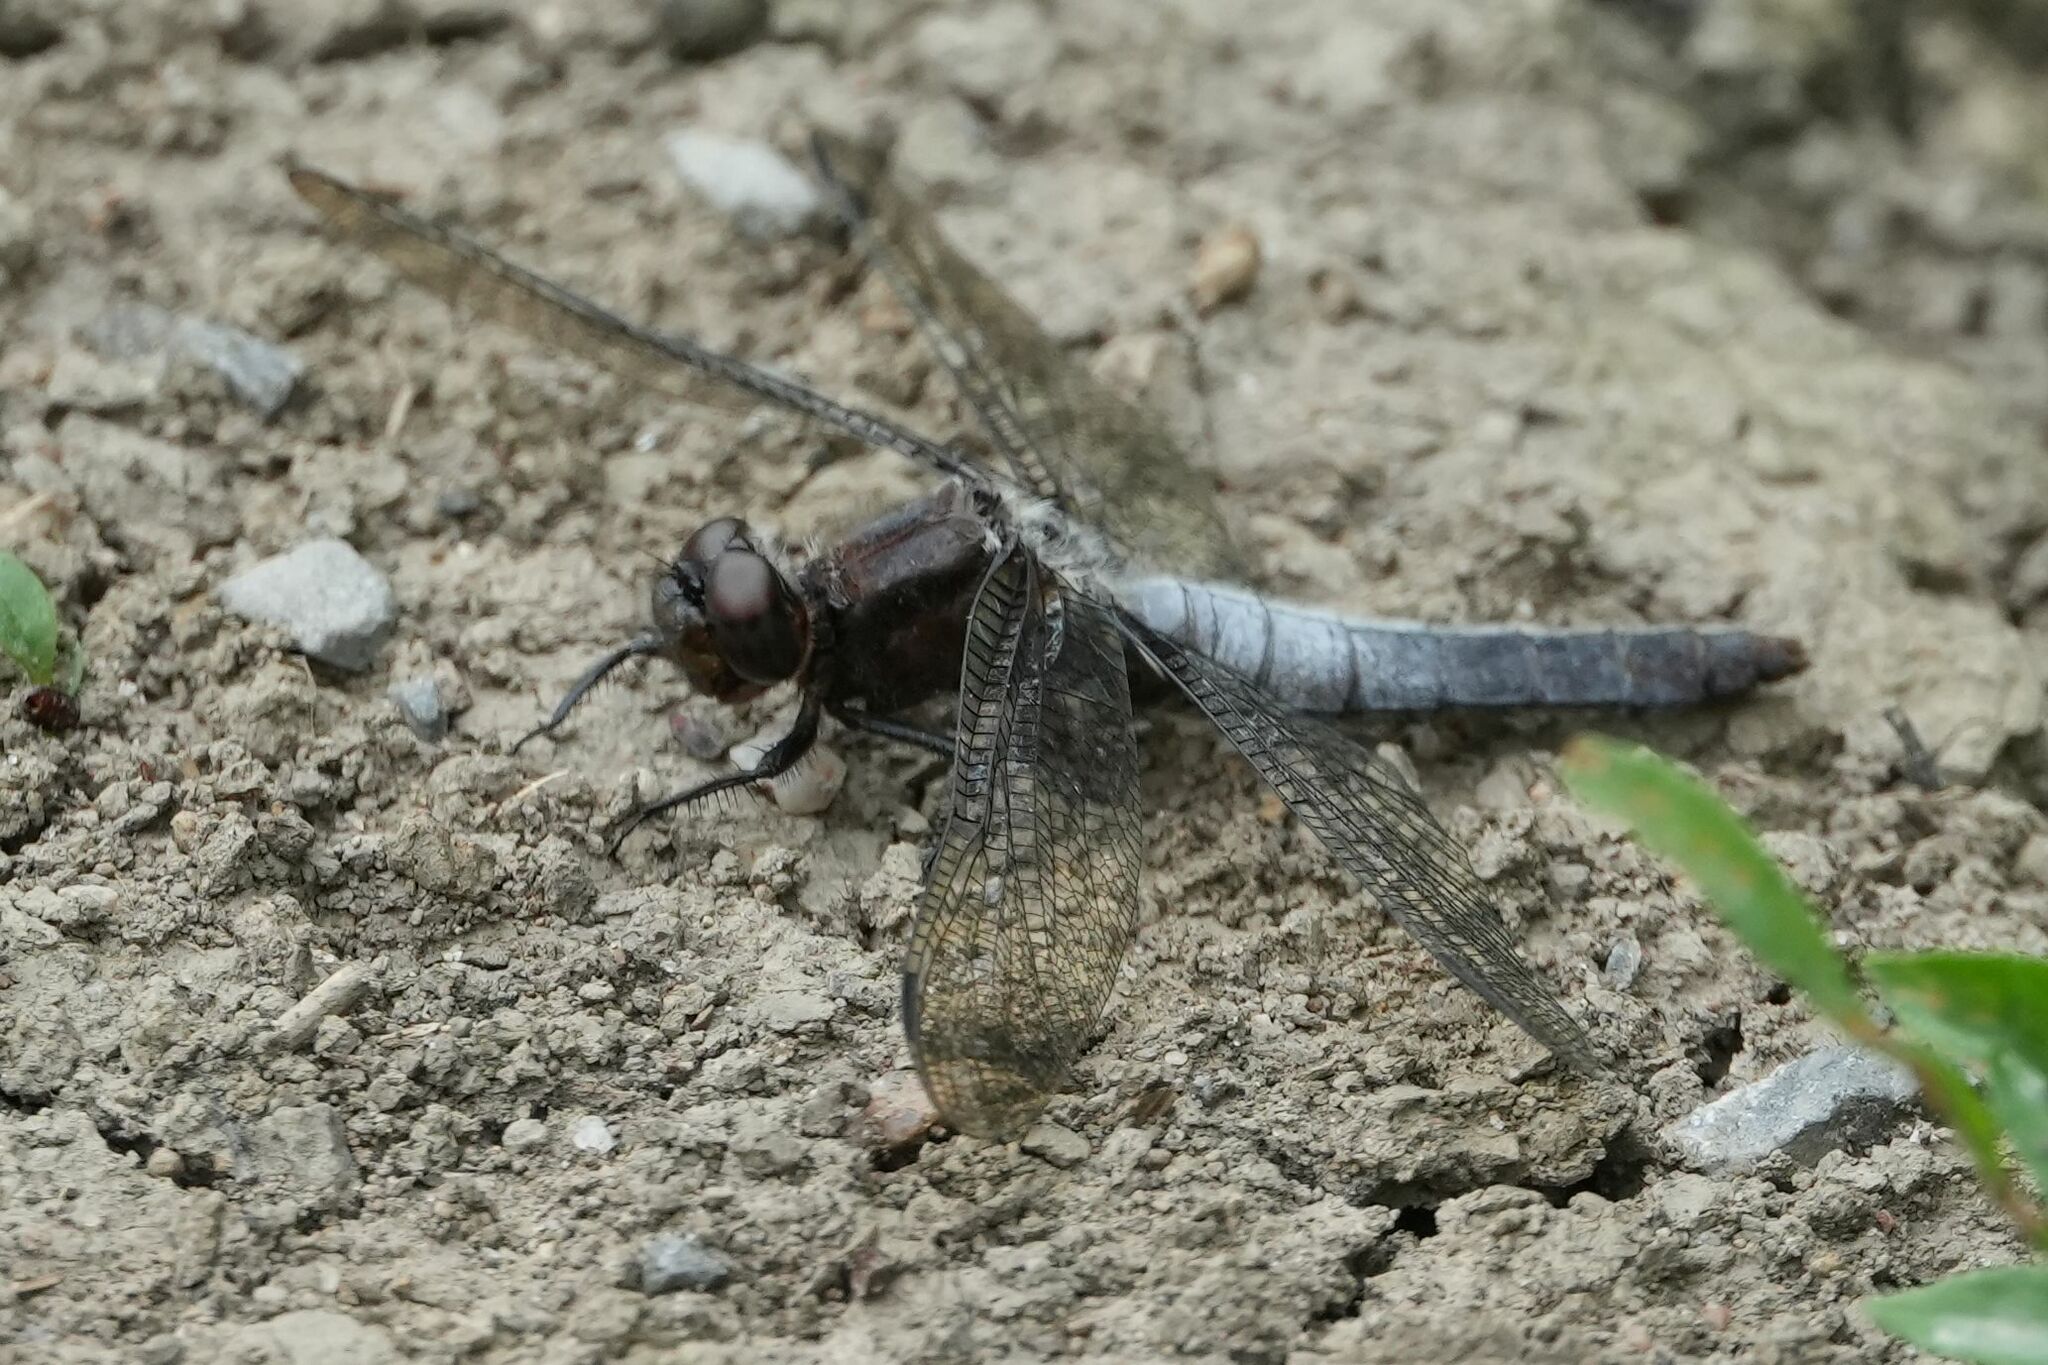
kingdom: Animalia
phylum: Arthropoda
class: Insecta
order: Odonata
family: Libellulidae
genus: Ladona
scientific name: Ladona julia
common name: Chalk-fronted corporal
